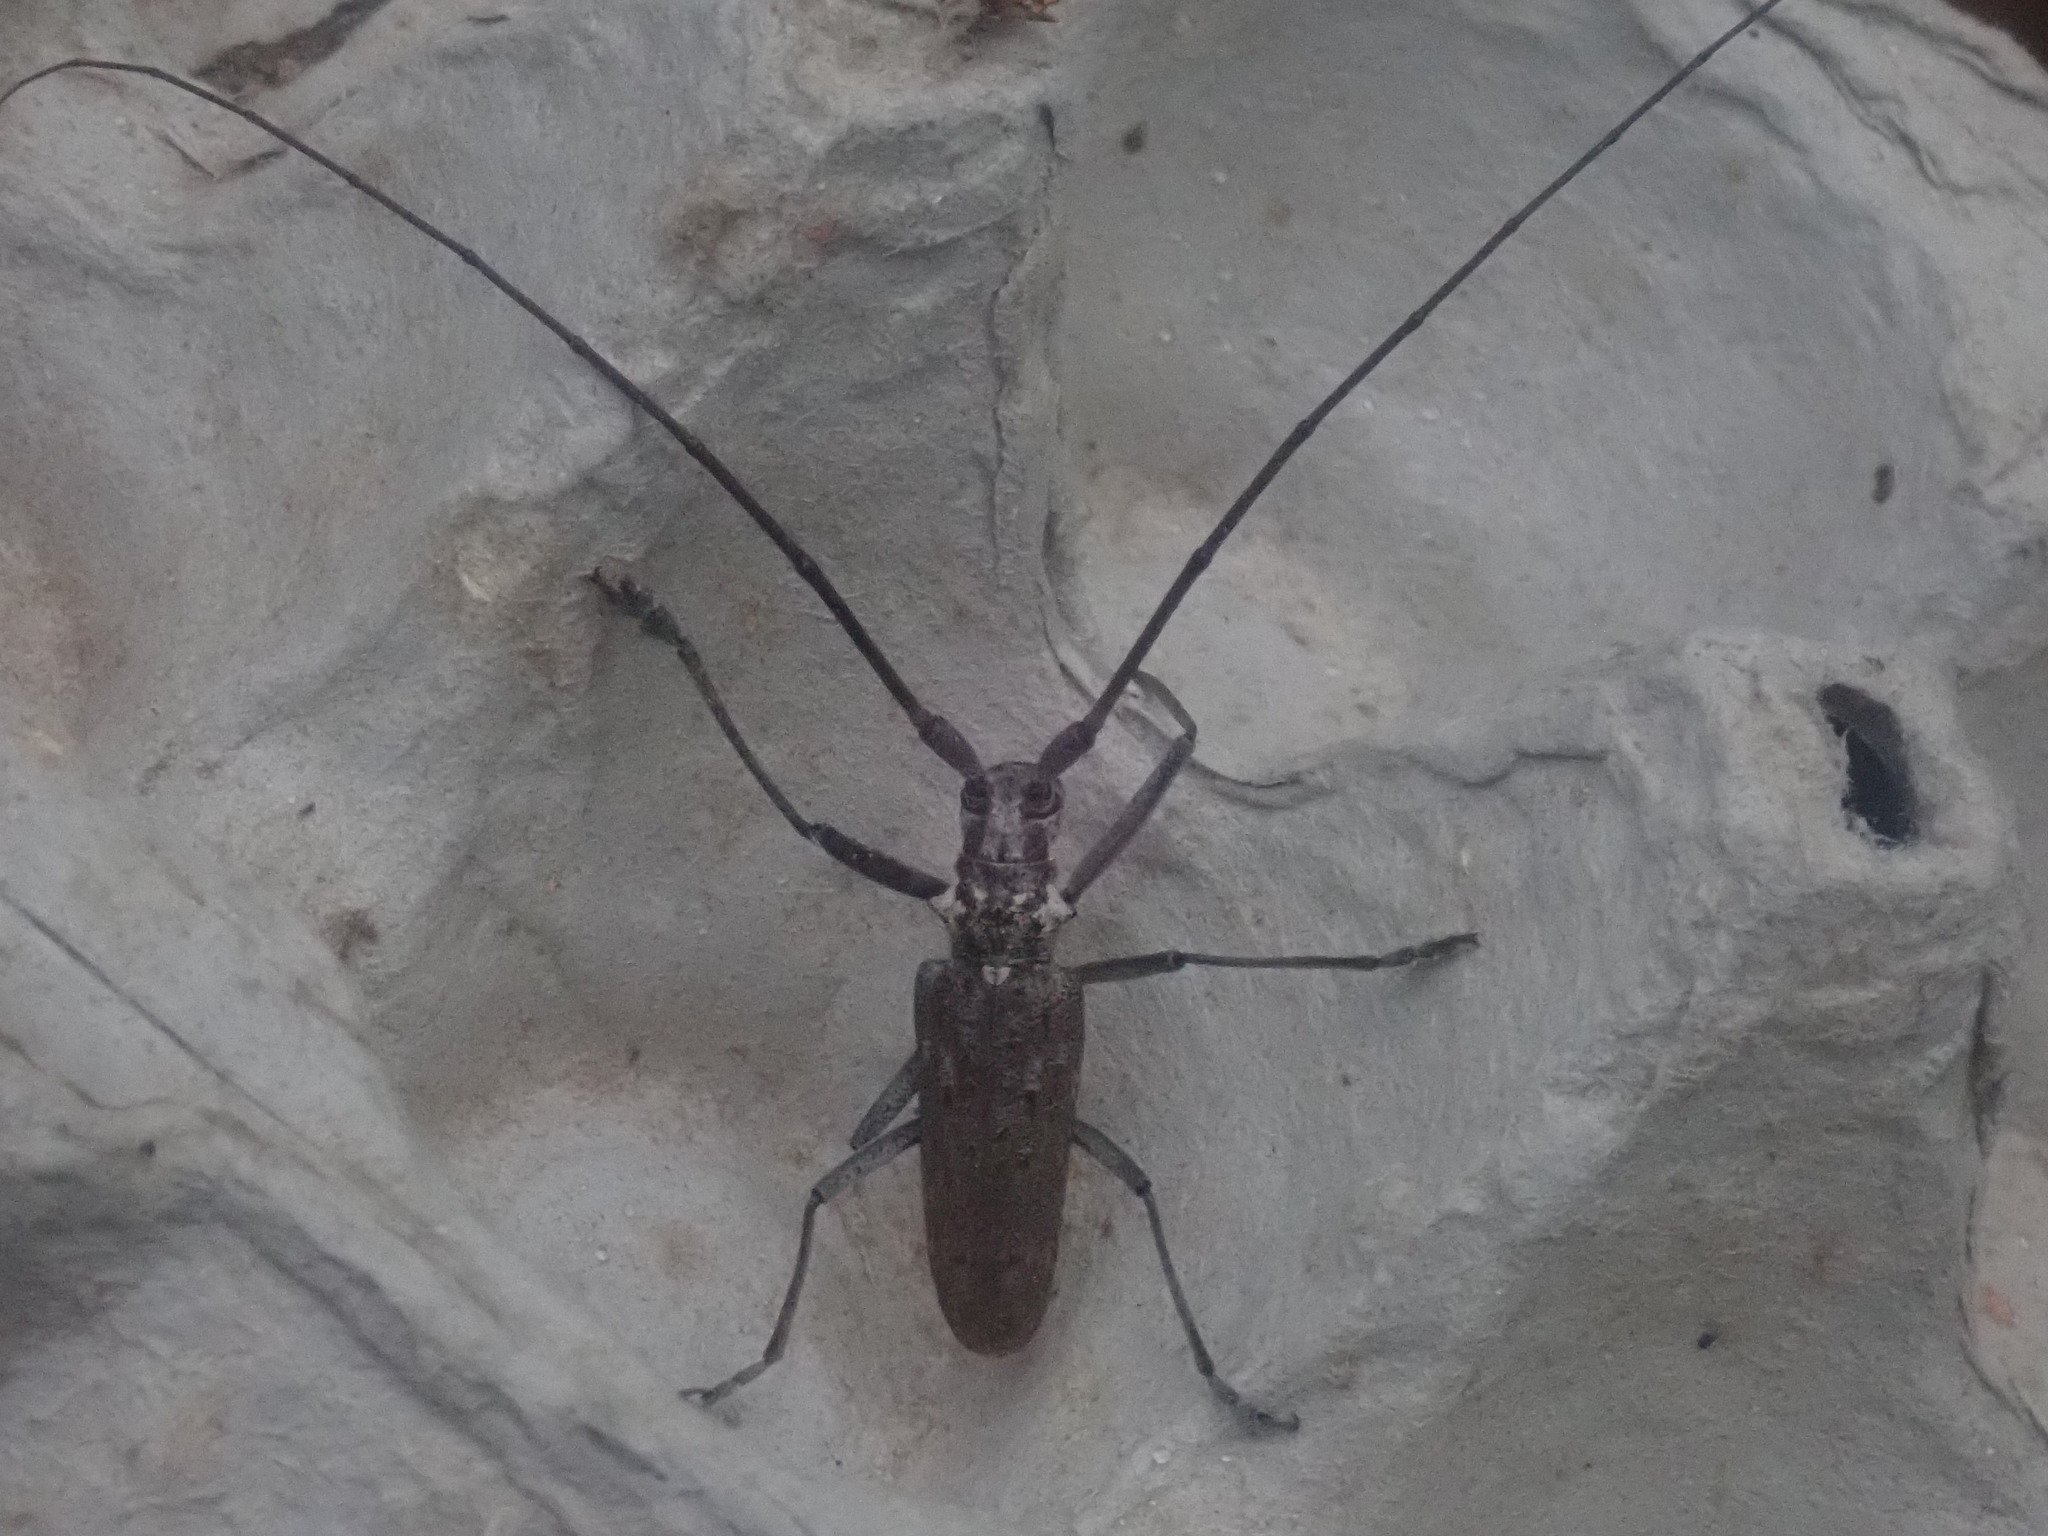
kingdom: Animalia
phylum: Arthropoda
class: Insecta
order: Coleoptera
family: Cerambycidae
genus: Monochamus
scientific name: Monochamus notatus
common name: Northeastern pine sawyer beetle
